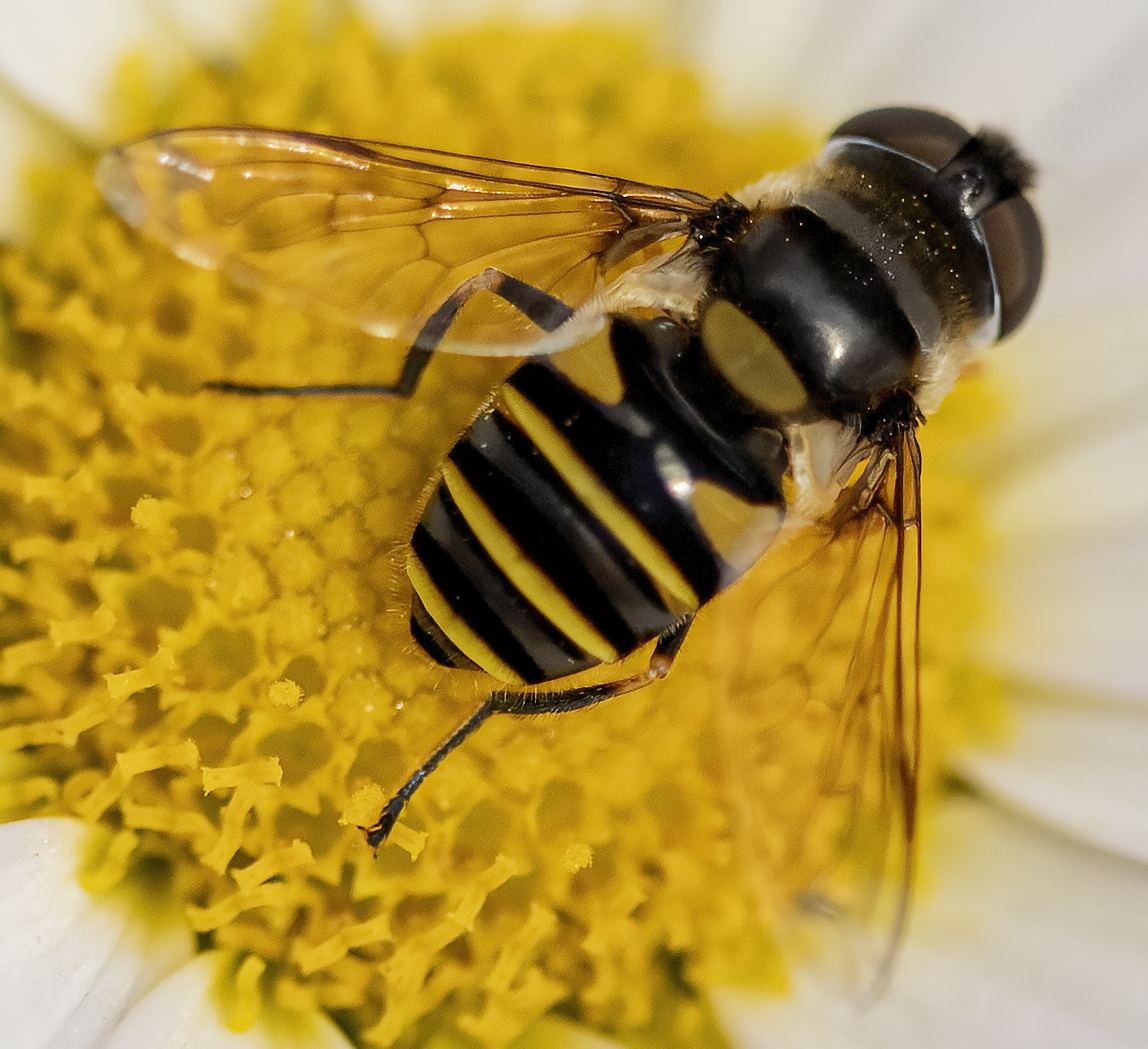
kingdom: Animalia
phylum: Arthropoda
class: Insecta
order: Diptera
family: Syrphidae
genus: Eristalis
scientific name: Eristalis transversa
